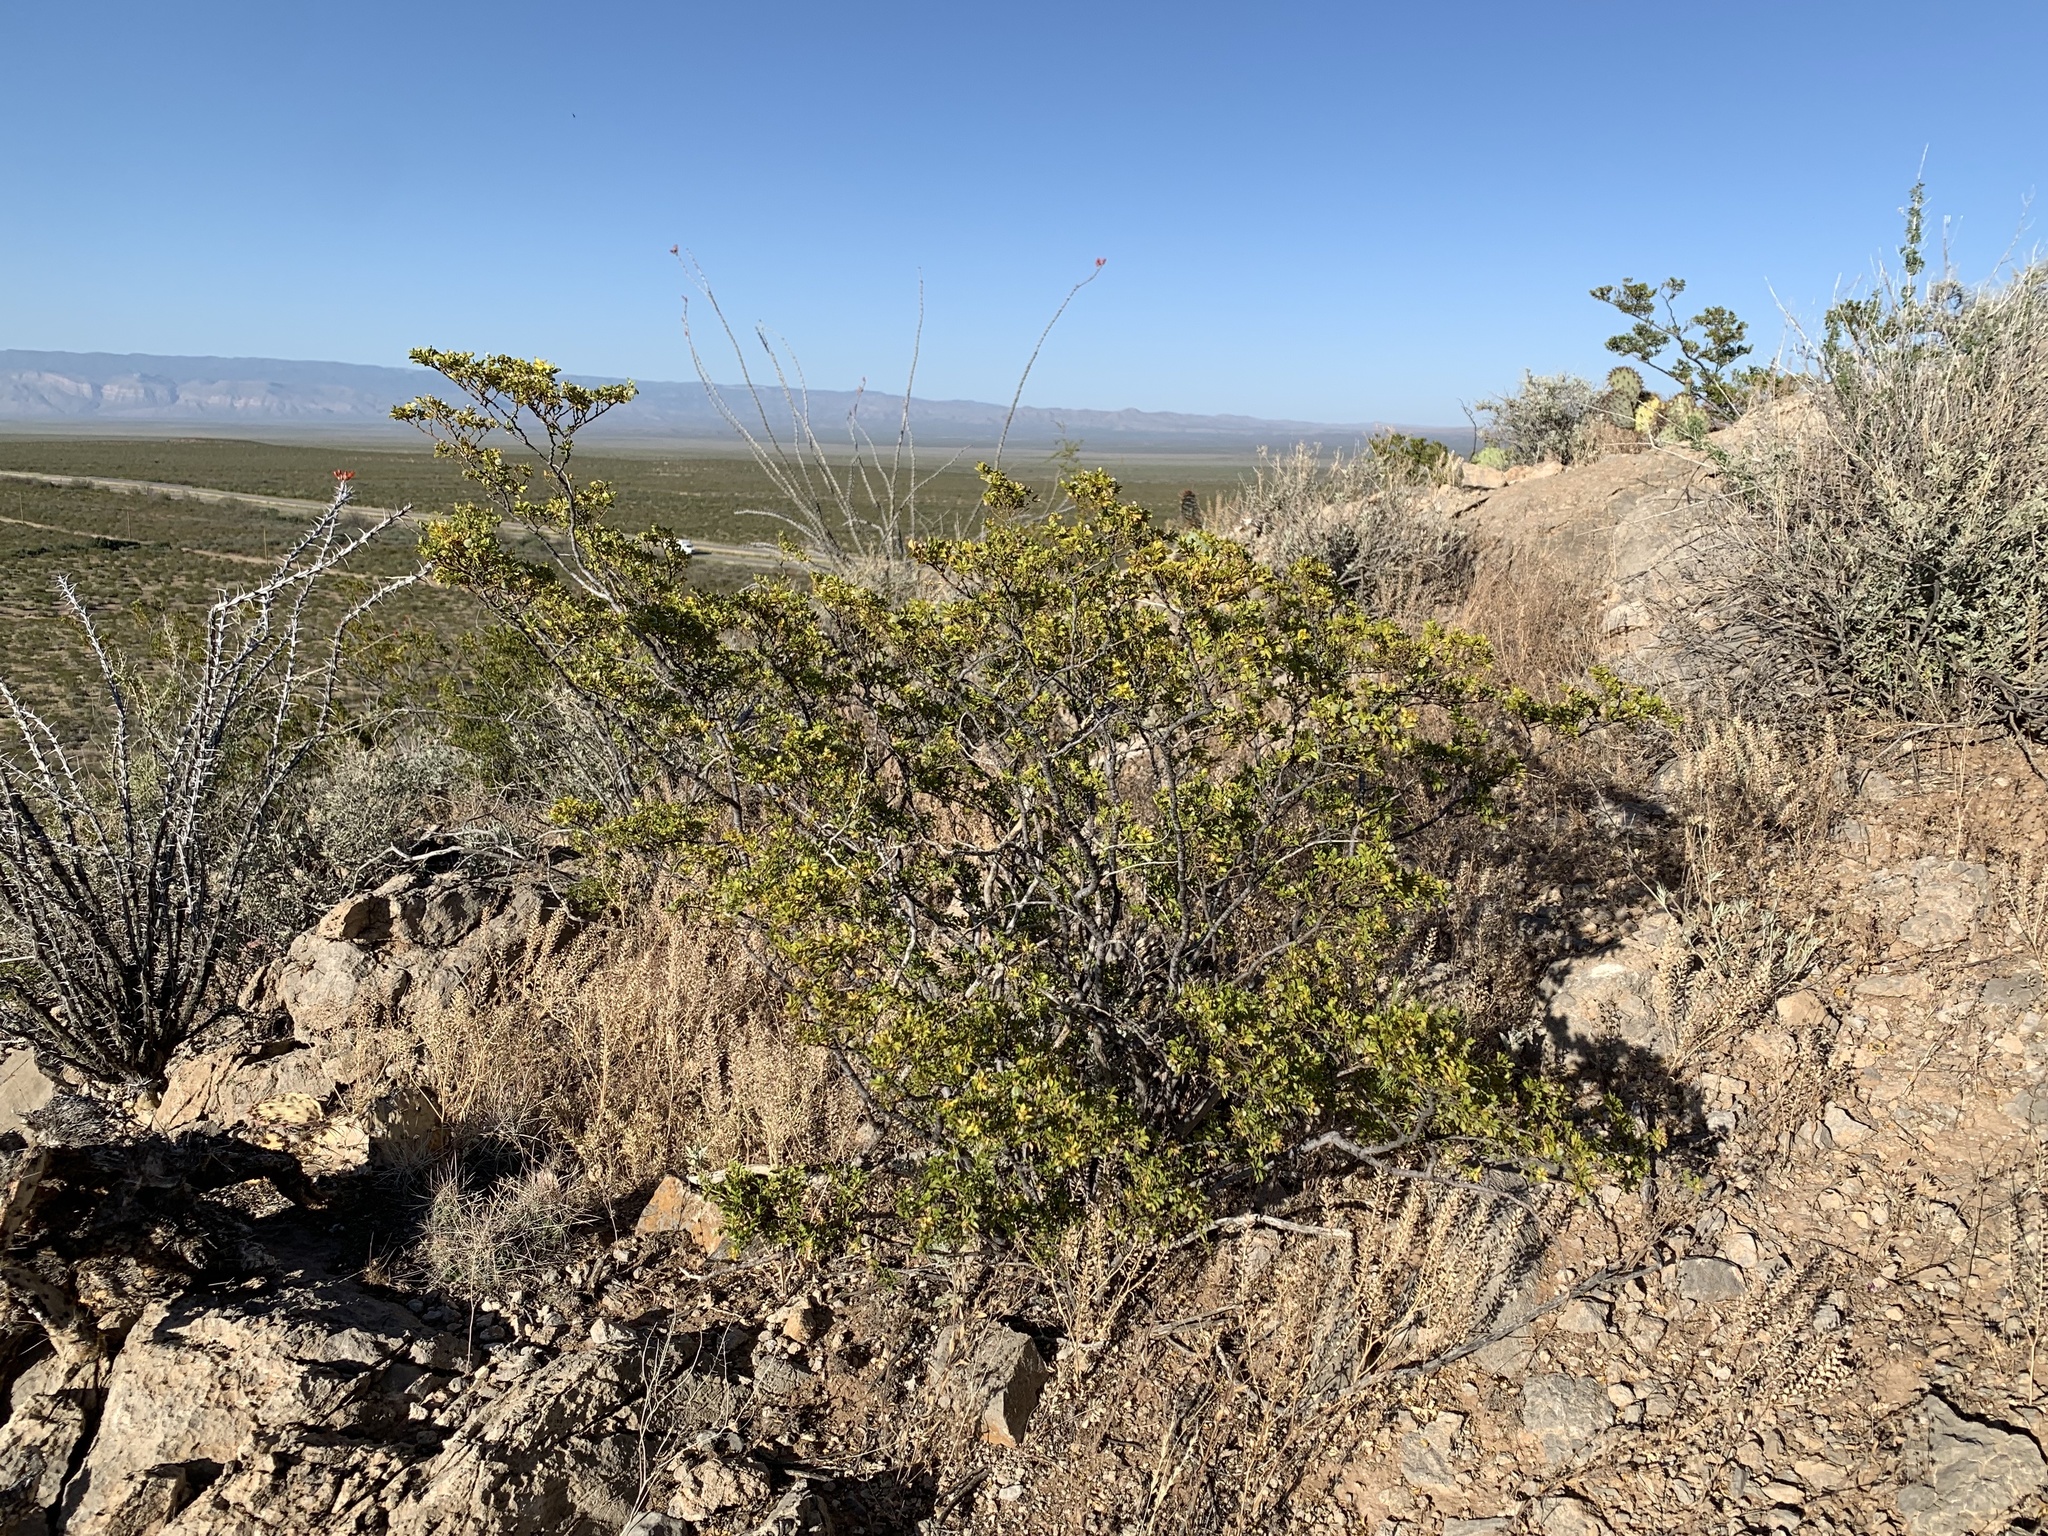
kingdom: Plantae
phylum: Tracheophyta
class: Magnoliopsida
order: Zygophyllales
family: Zygophyllaceae
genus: Larrea
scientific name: Larrea tridentata
